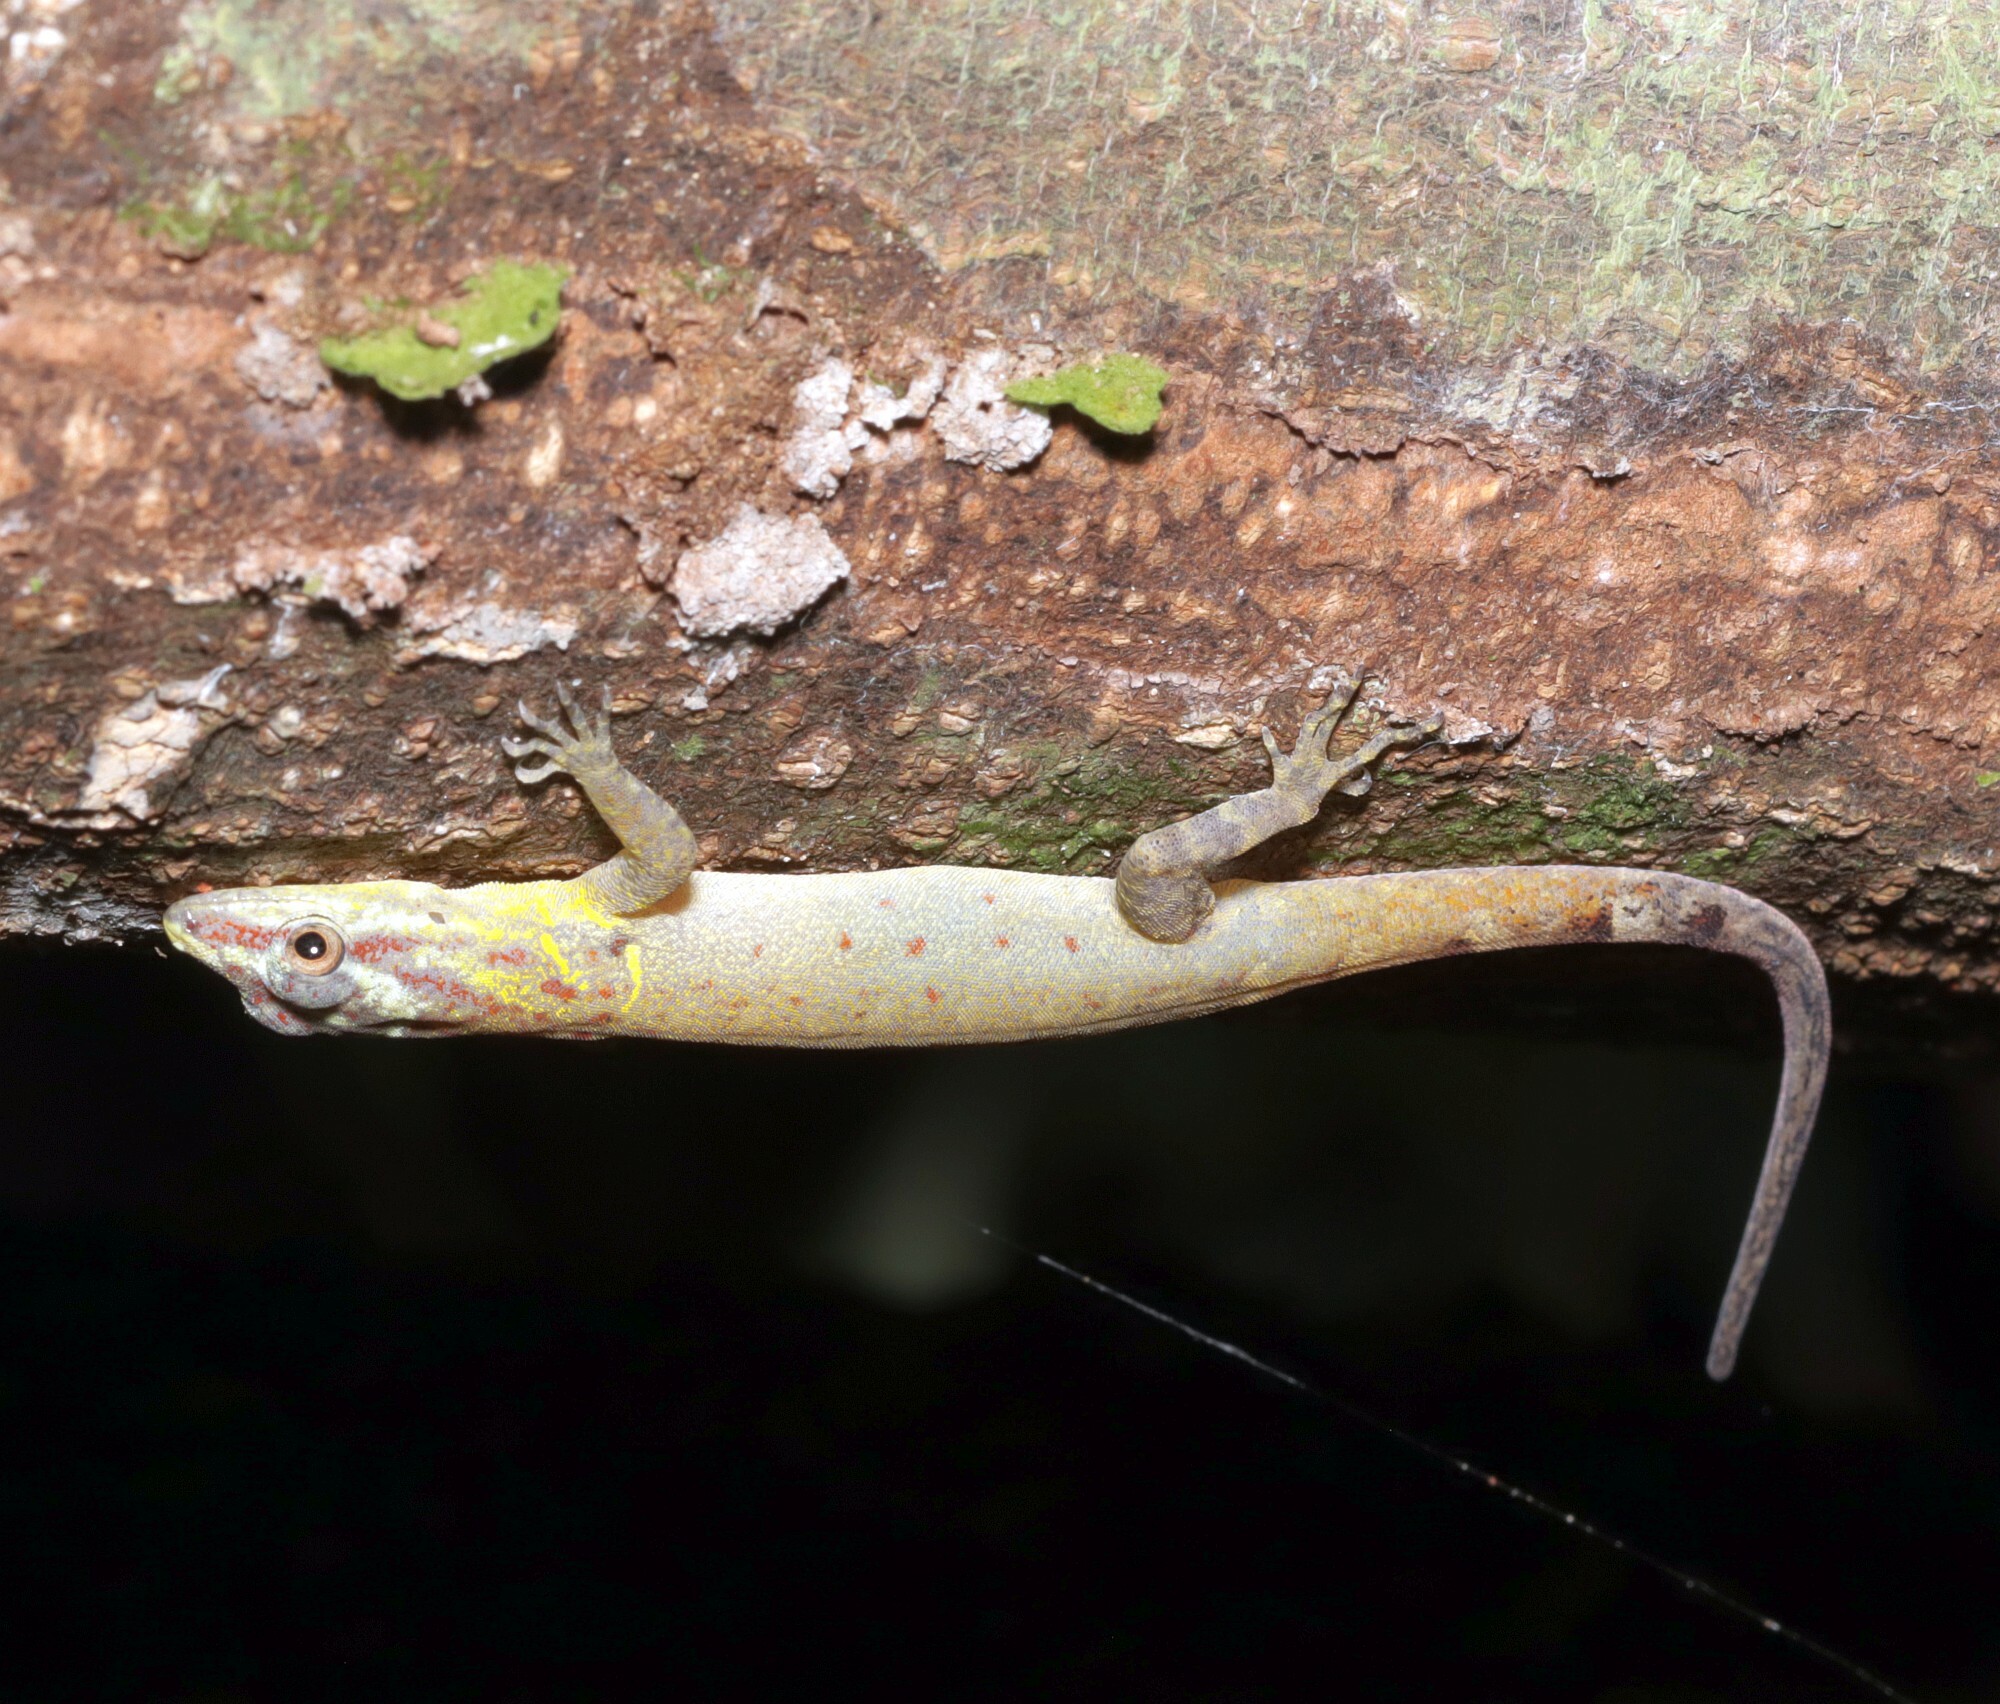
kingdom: Animalia
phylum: Chordata
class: Squamata
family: Sphaerodactylidae
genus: Gonatodes
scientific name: Gonatodes humeralis
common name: South american clawed gecko
